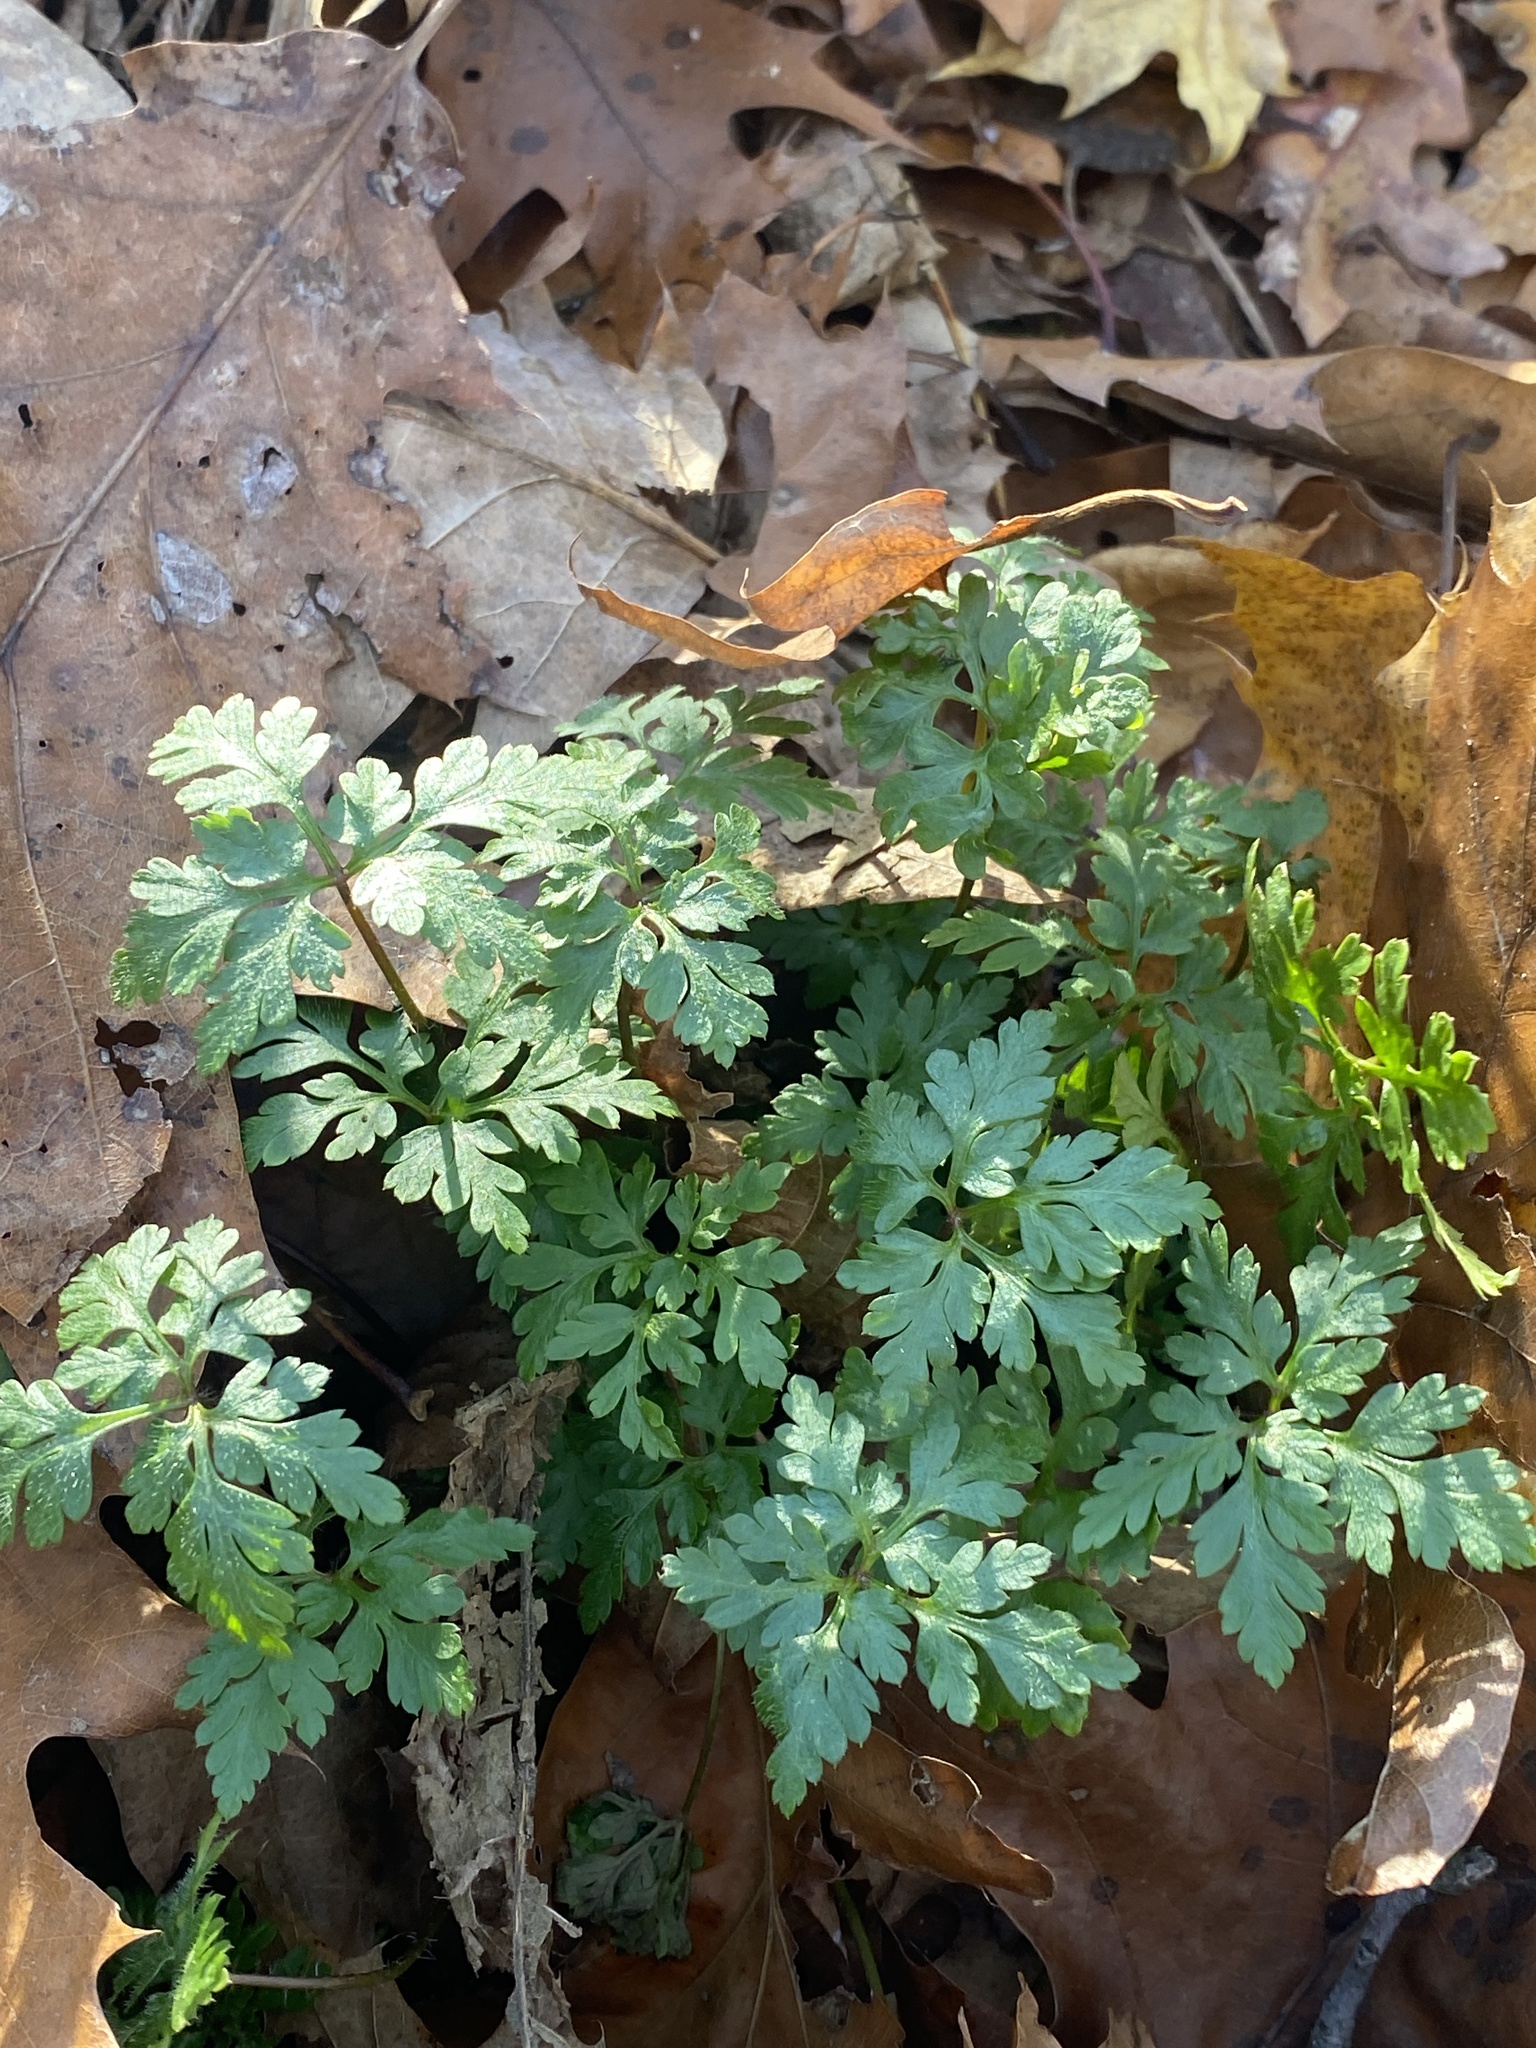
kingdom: Plantae
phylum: Tracheophyta
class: Magnoliopsida
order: Geraniales
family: Geraniaceae
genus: Geranium
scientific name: Geranium robertianum
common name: Herb-robert
